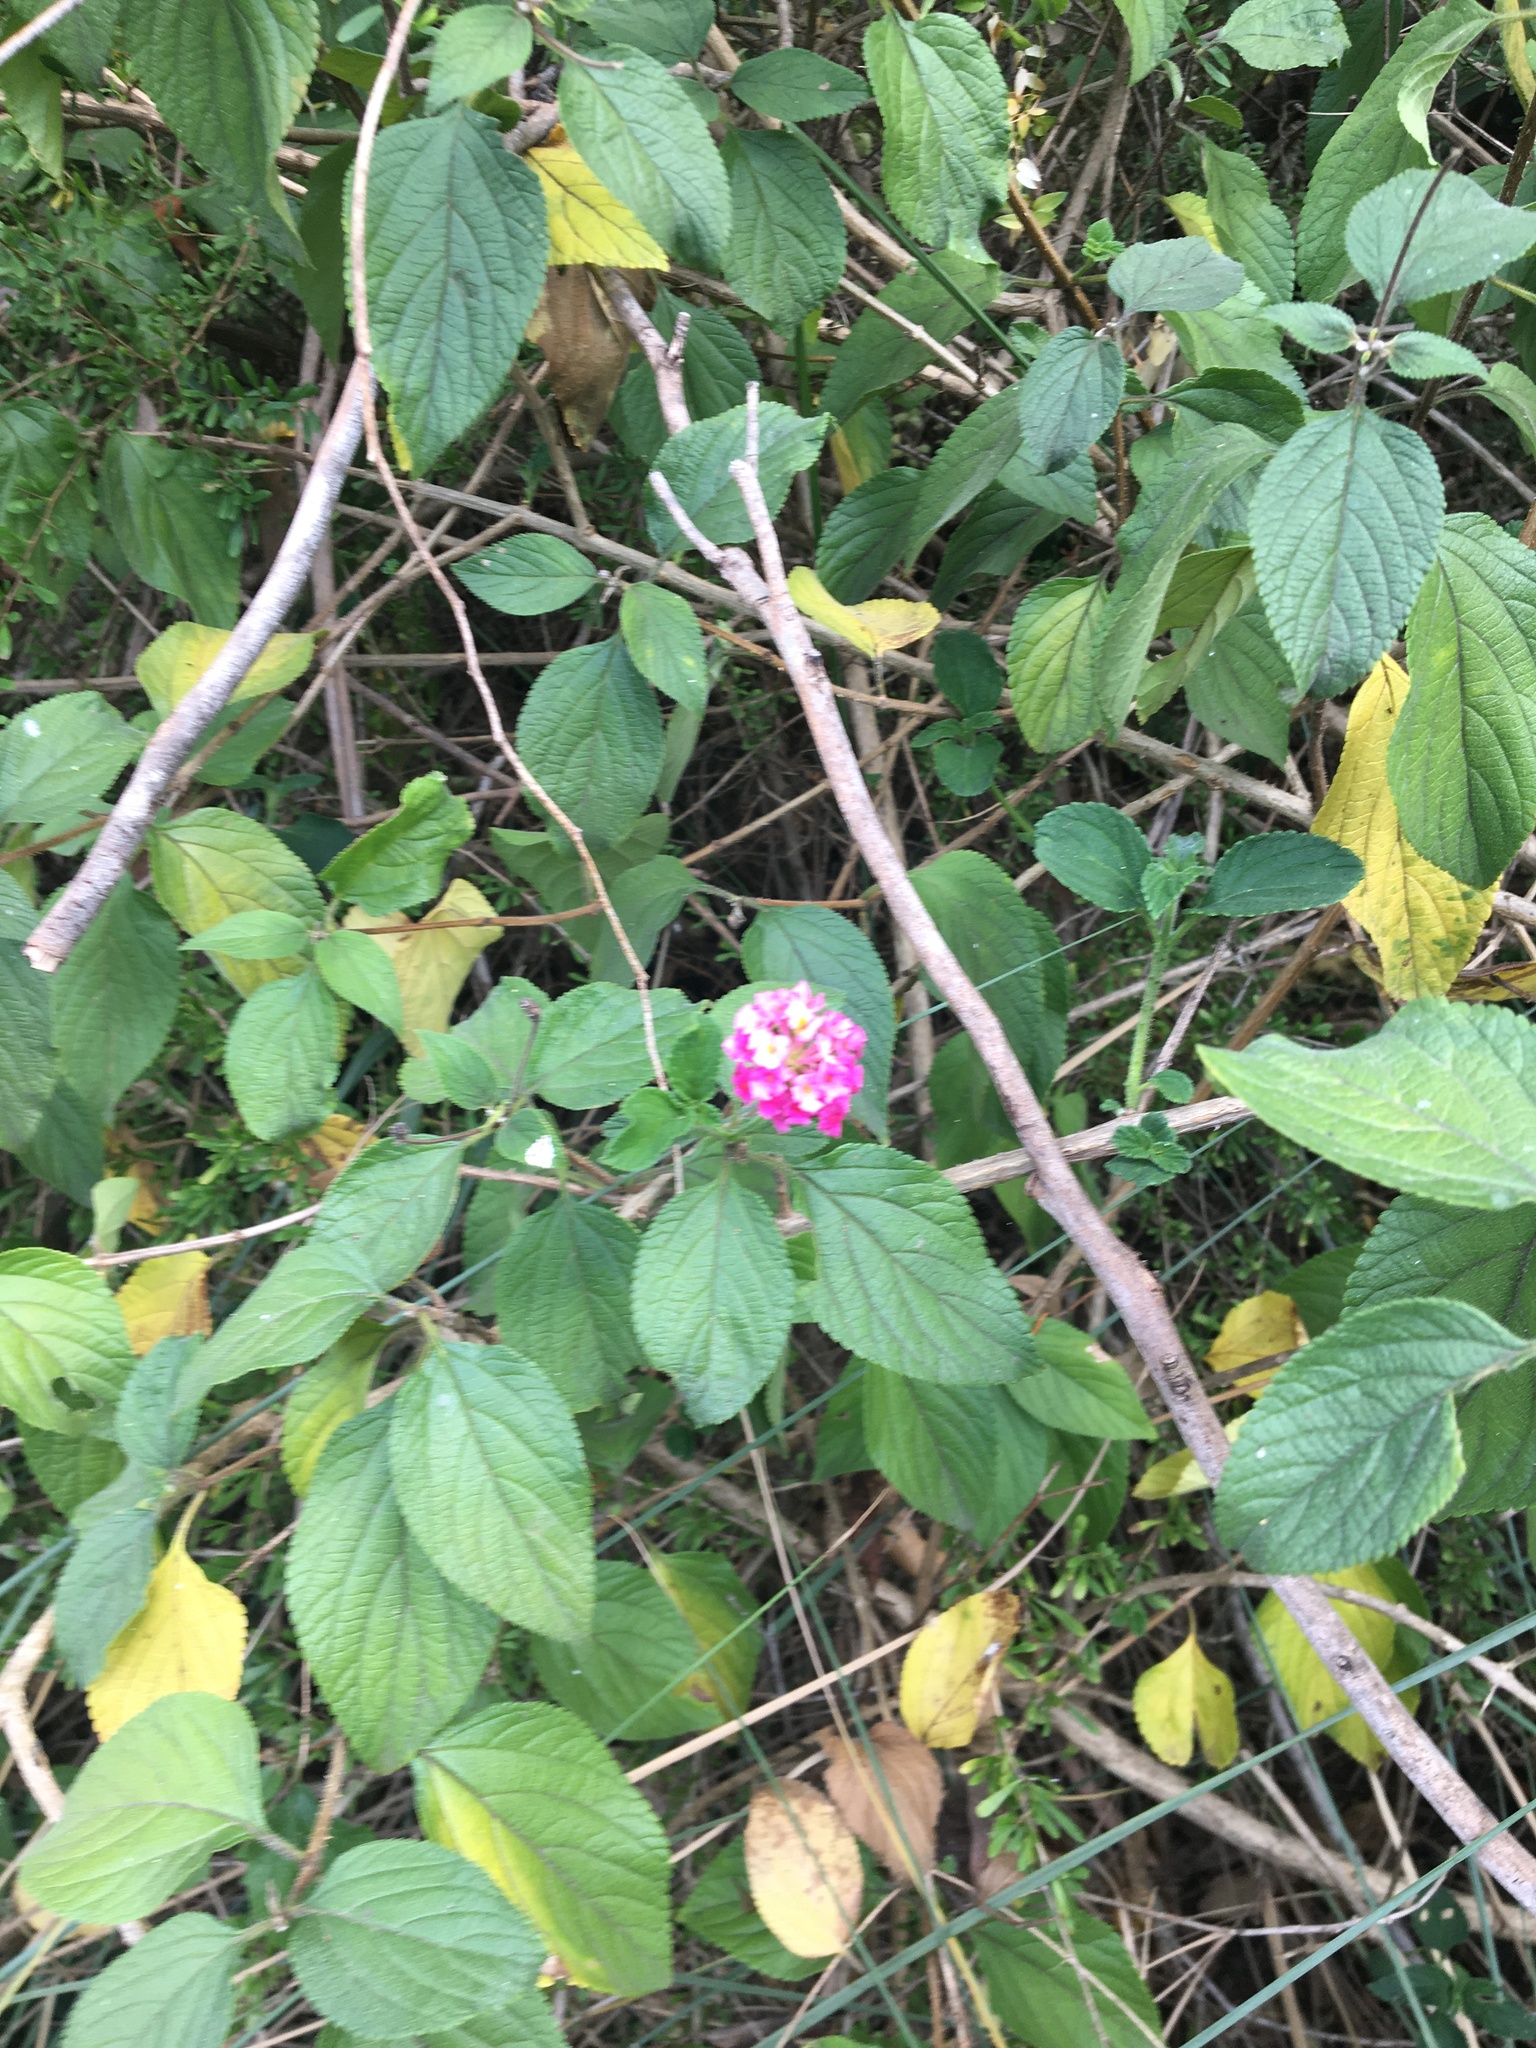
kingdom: Plantae
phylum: Tracheophyta
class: Magnoliopsida
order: Lamiales
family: Verbenaceae
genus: Lantana
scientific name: Lantana camara
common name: Lantana
